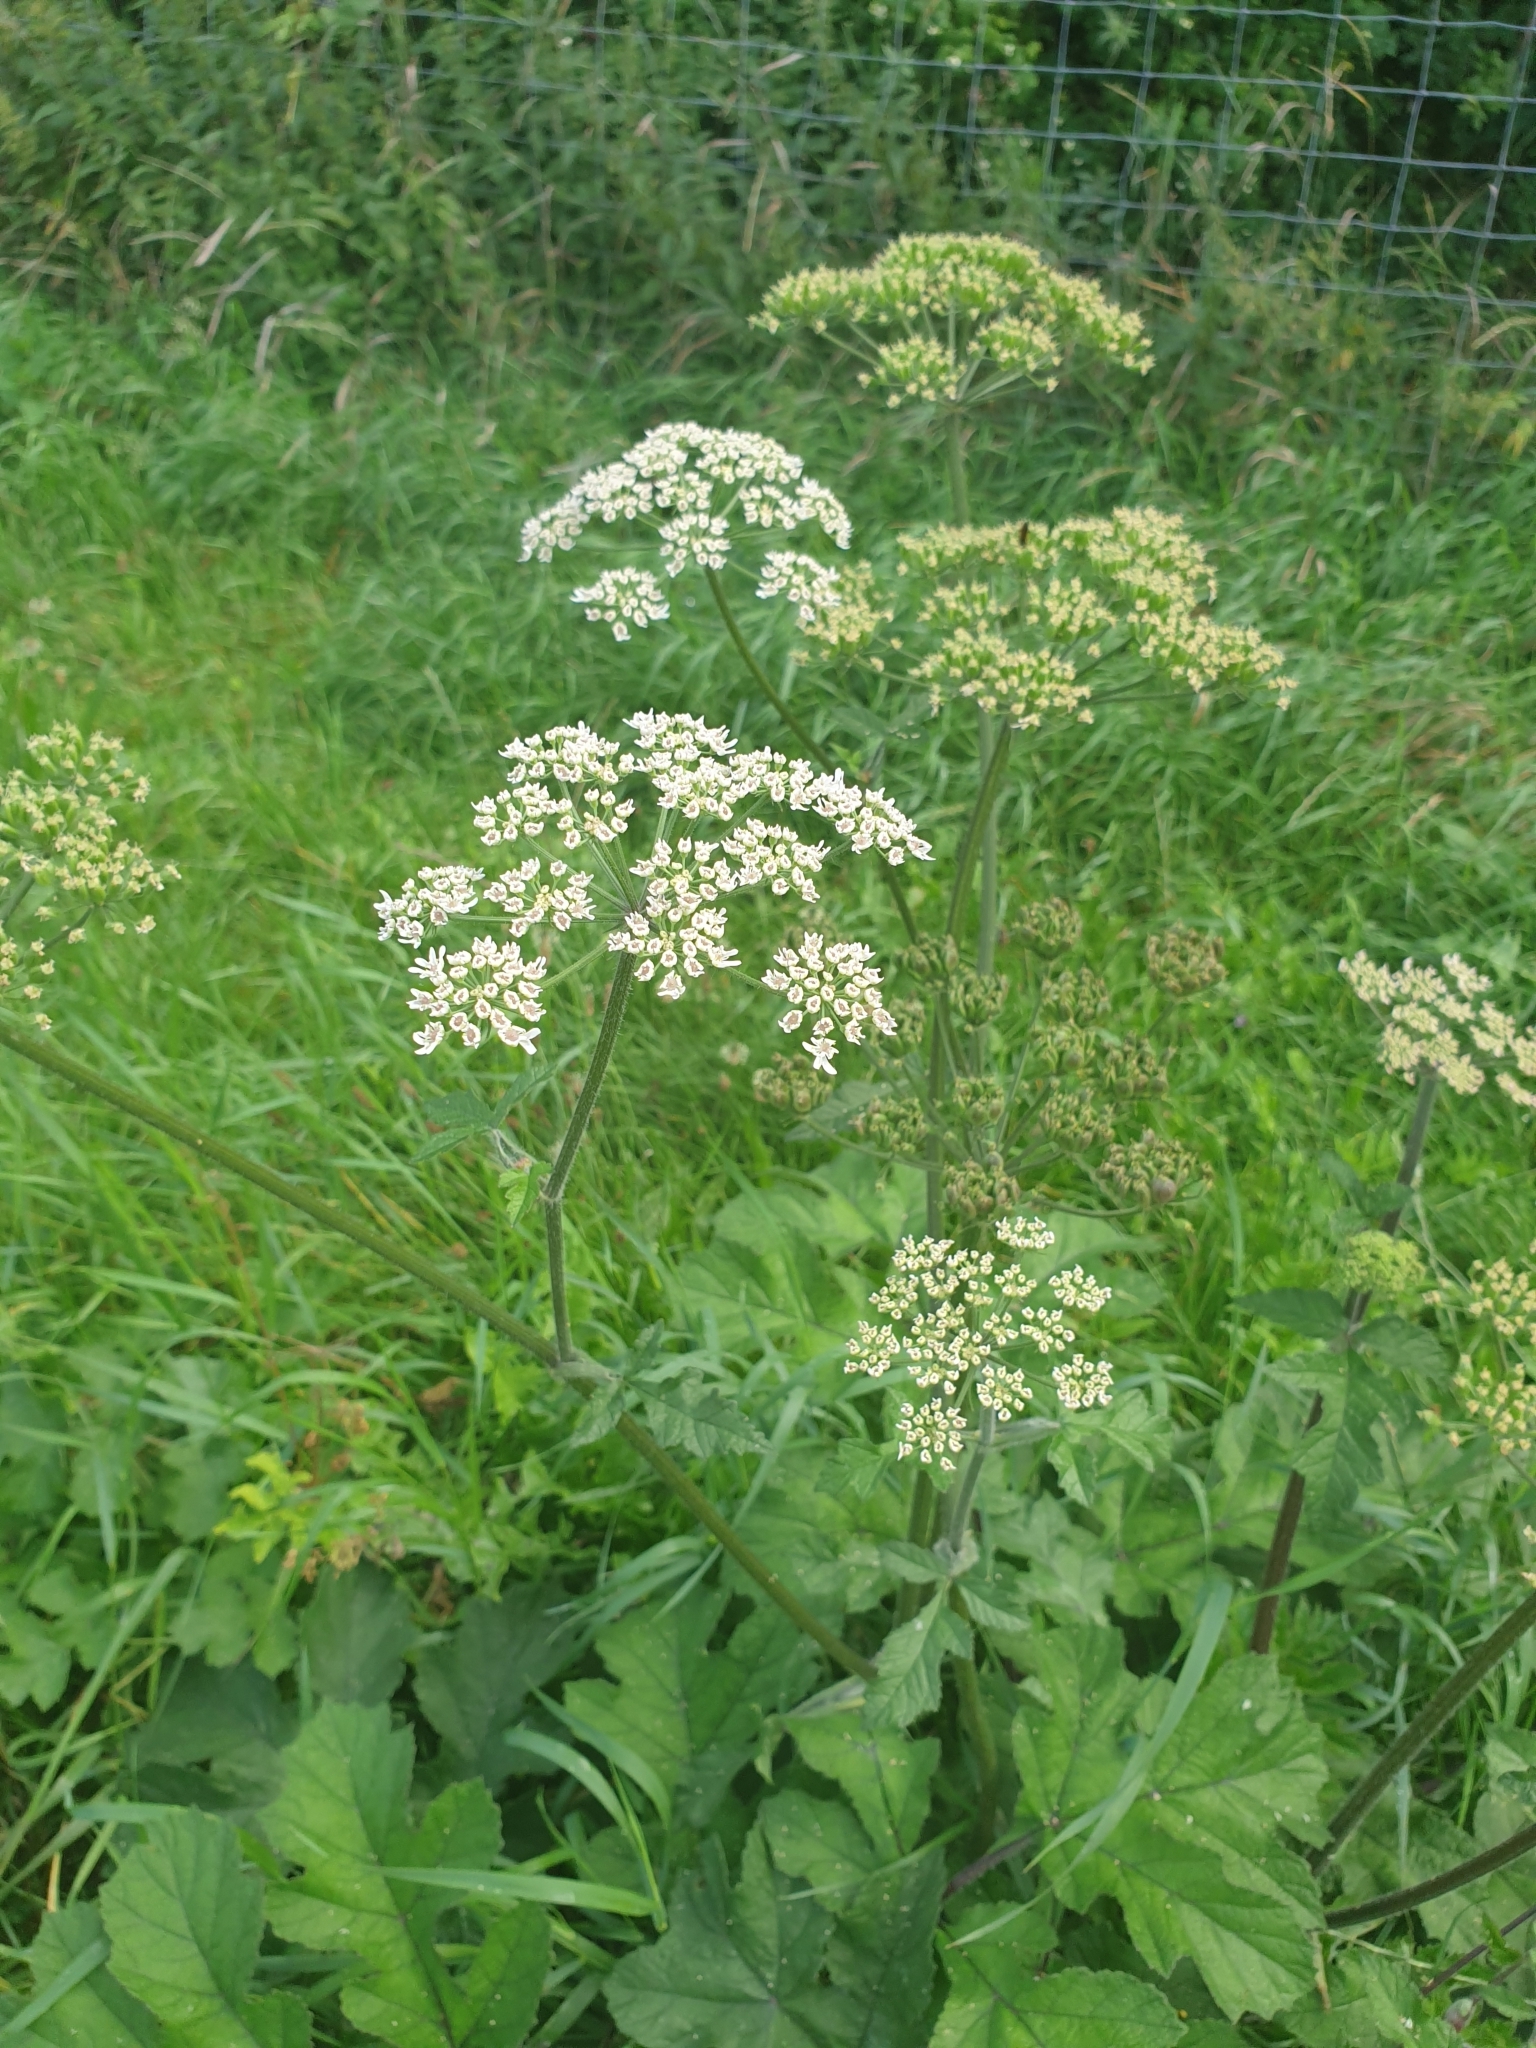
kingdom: Plantae
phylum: Tracheophyta
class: Magnoliopsida
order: Apiales
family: Apiaceae
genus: Heracleum
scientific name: Heracleum sphondylium
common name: Hogweed
